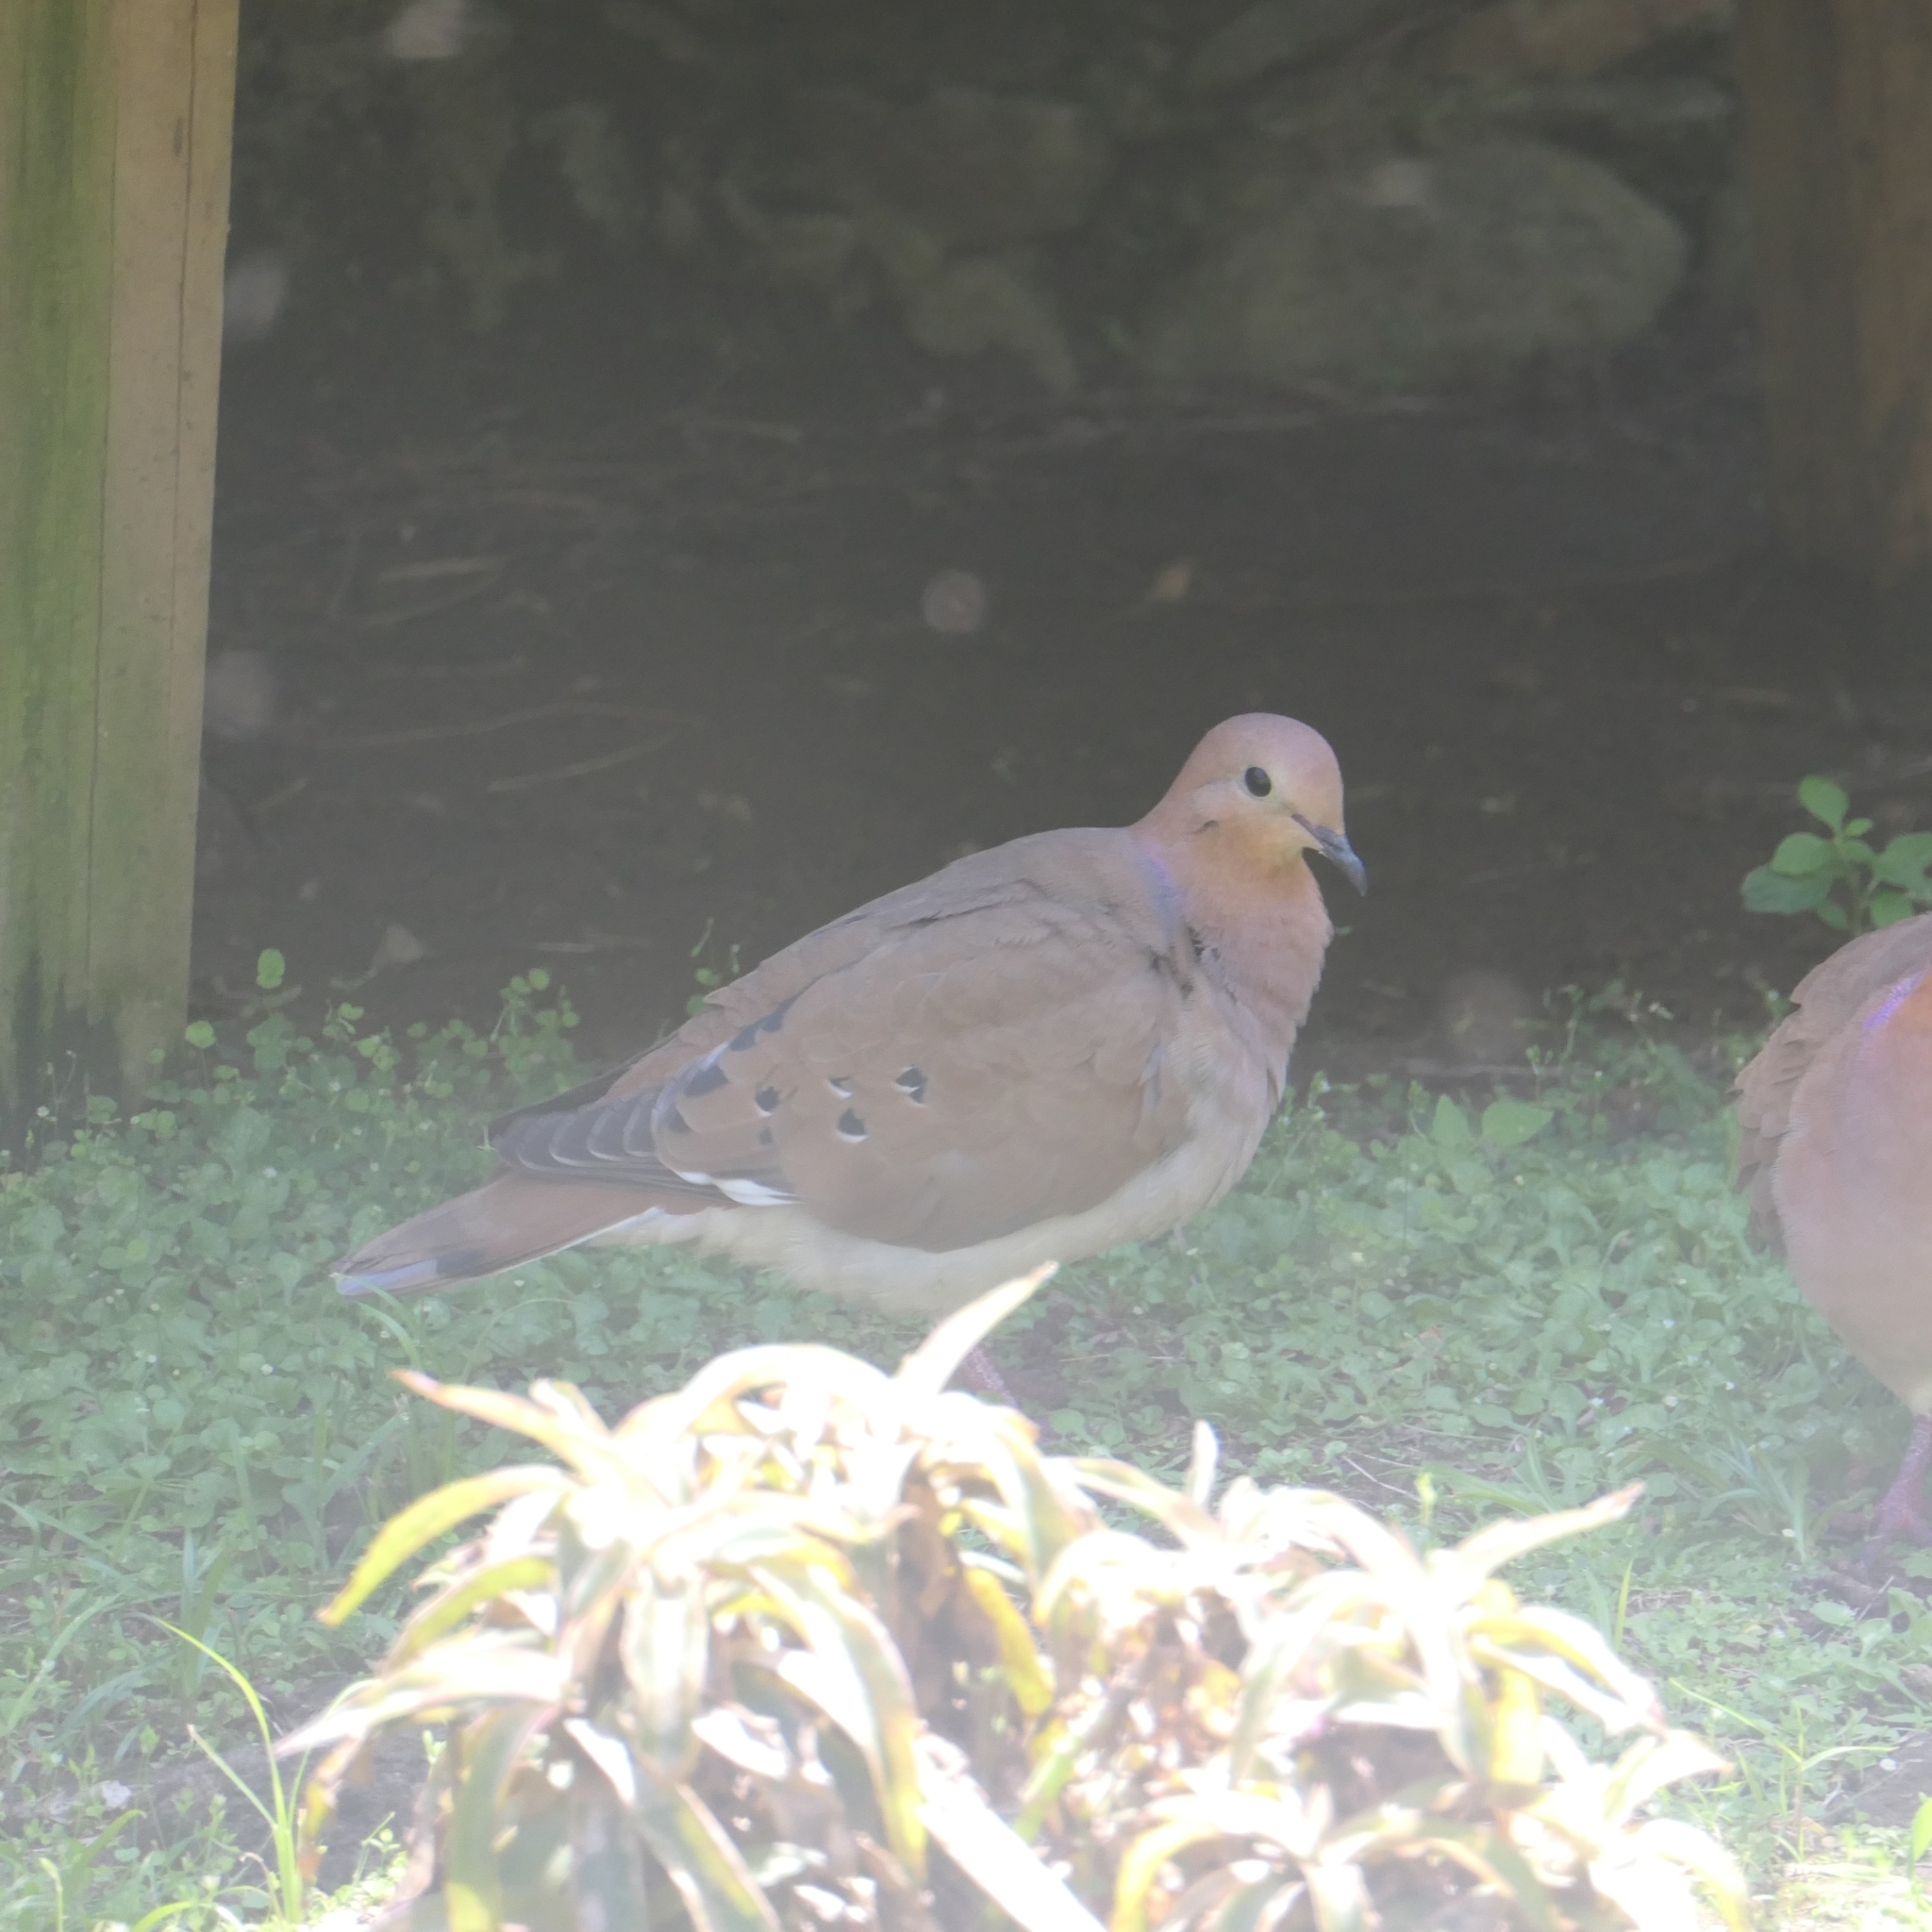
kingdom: Animalia
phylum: Chordata
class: Aves
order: Columbiformes
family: Columbidae
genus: Zenaida
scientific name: Zenaida aurita
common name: Zenaida dove
